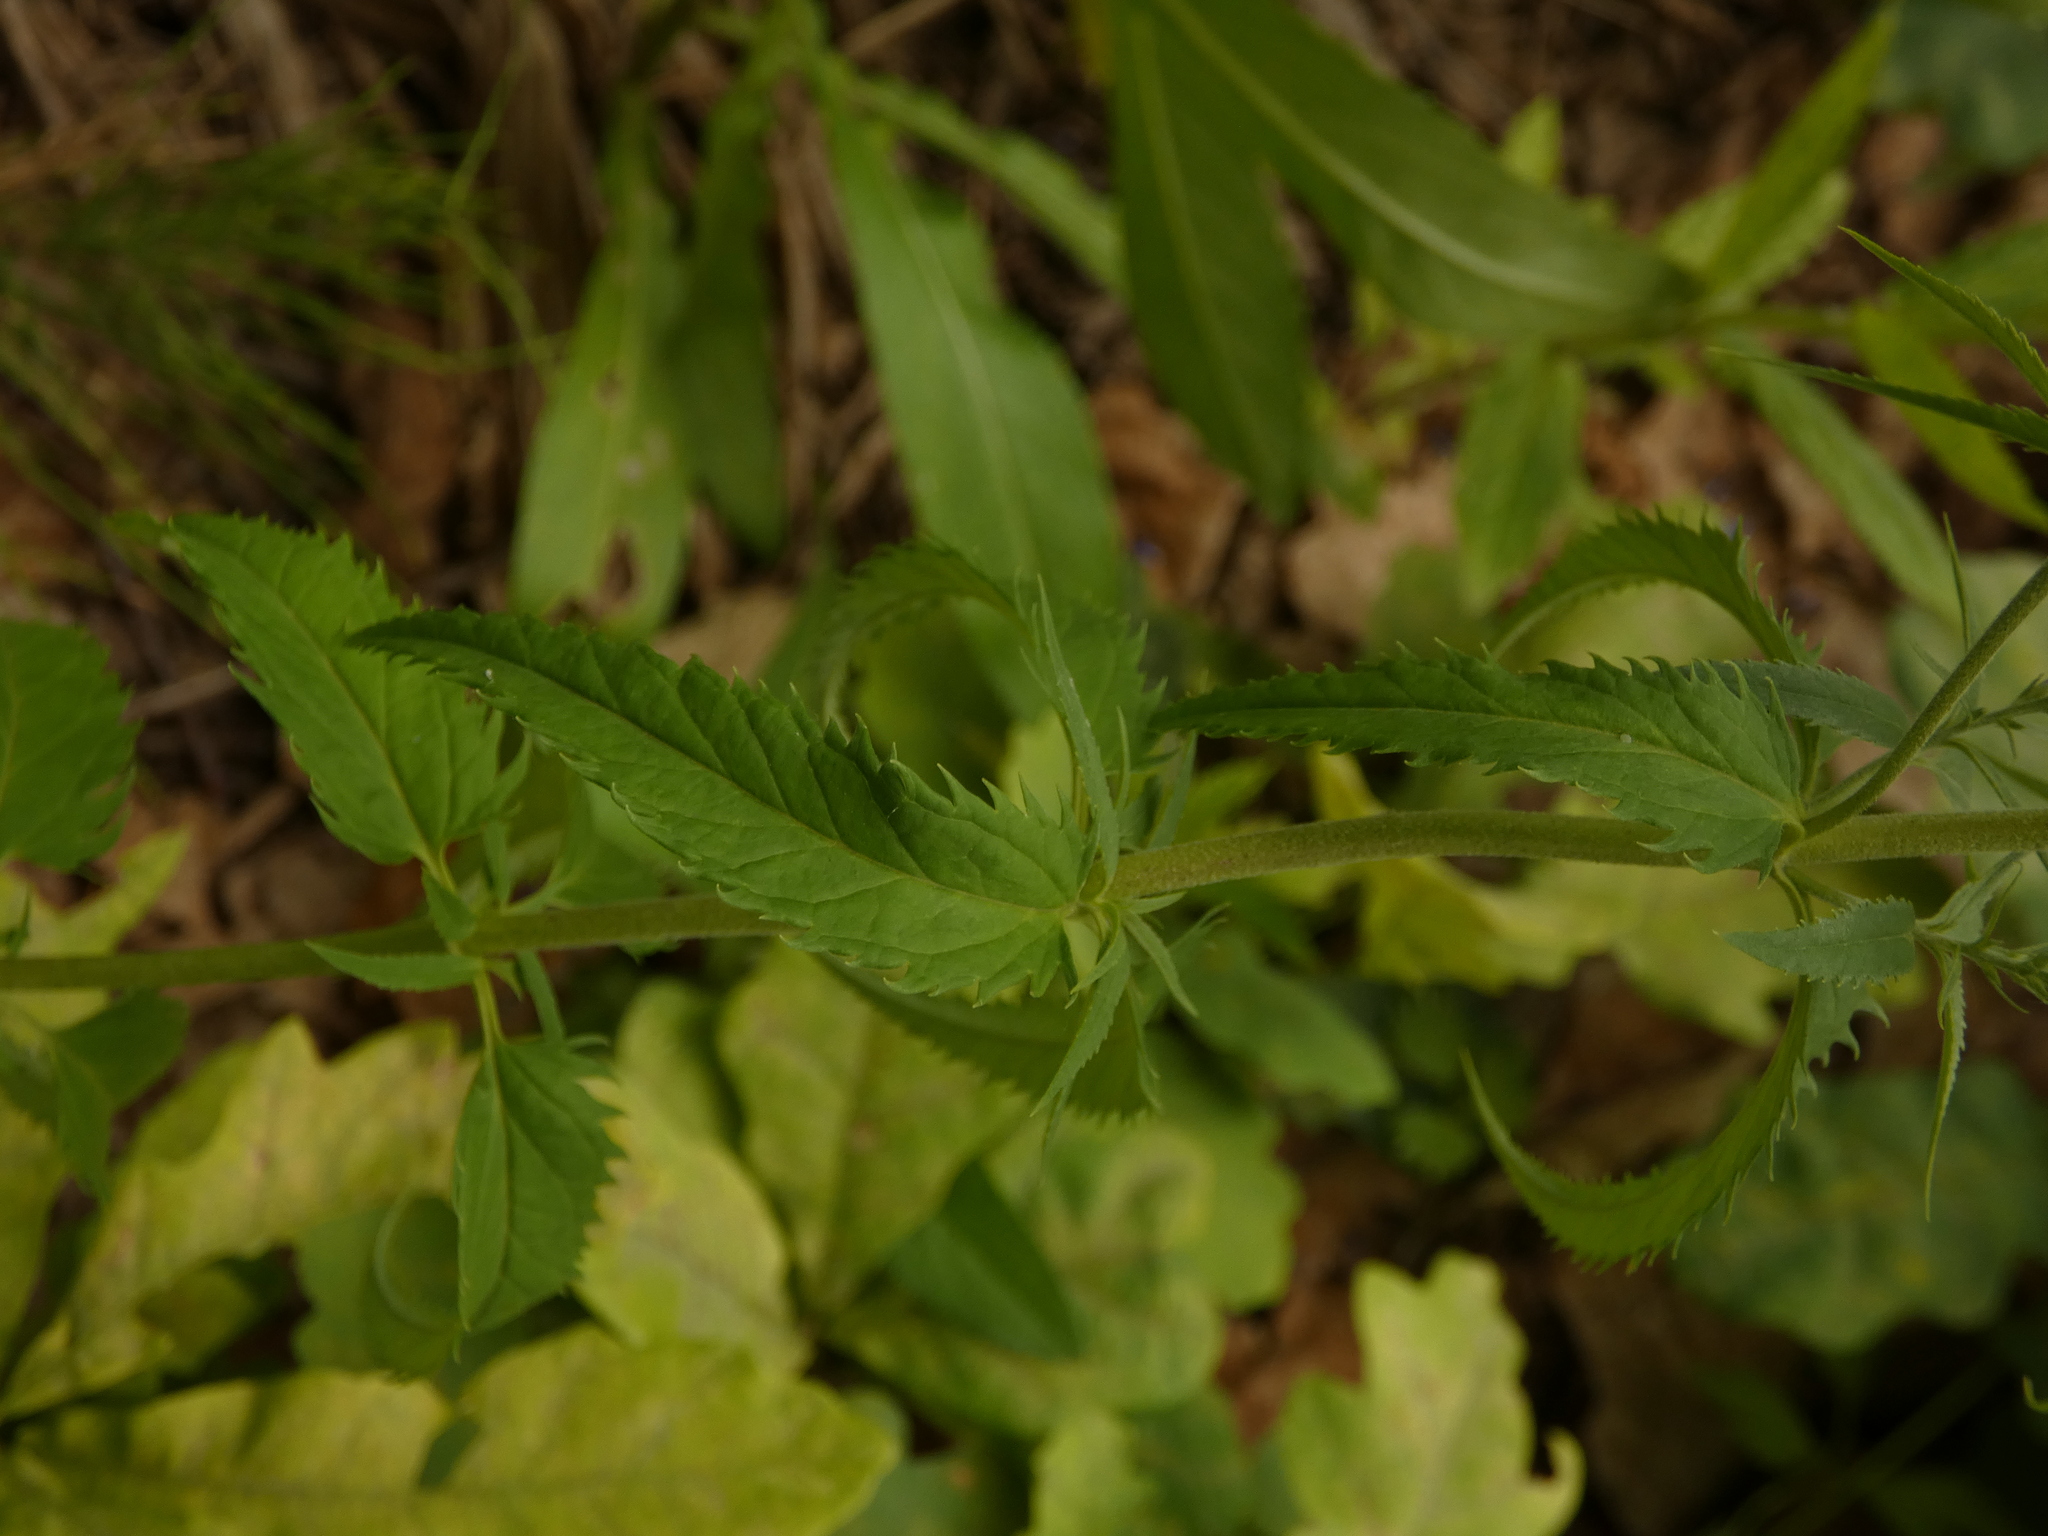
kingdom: Plantae
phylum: Tracheophyta
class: Magnoliopsida
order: Lamiales
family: Plantaginaceae
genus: Veronica
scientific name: Veronica longifolia
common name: Garden speedwell
